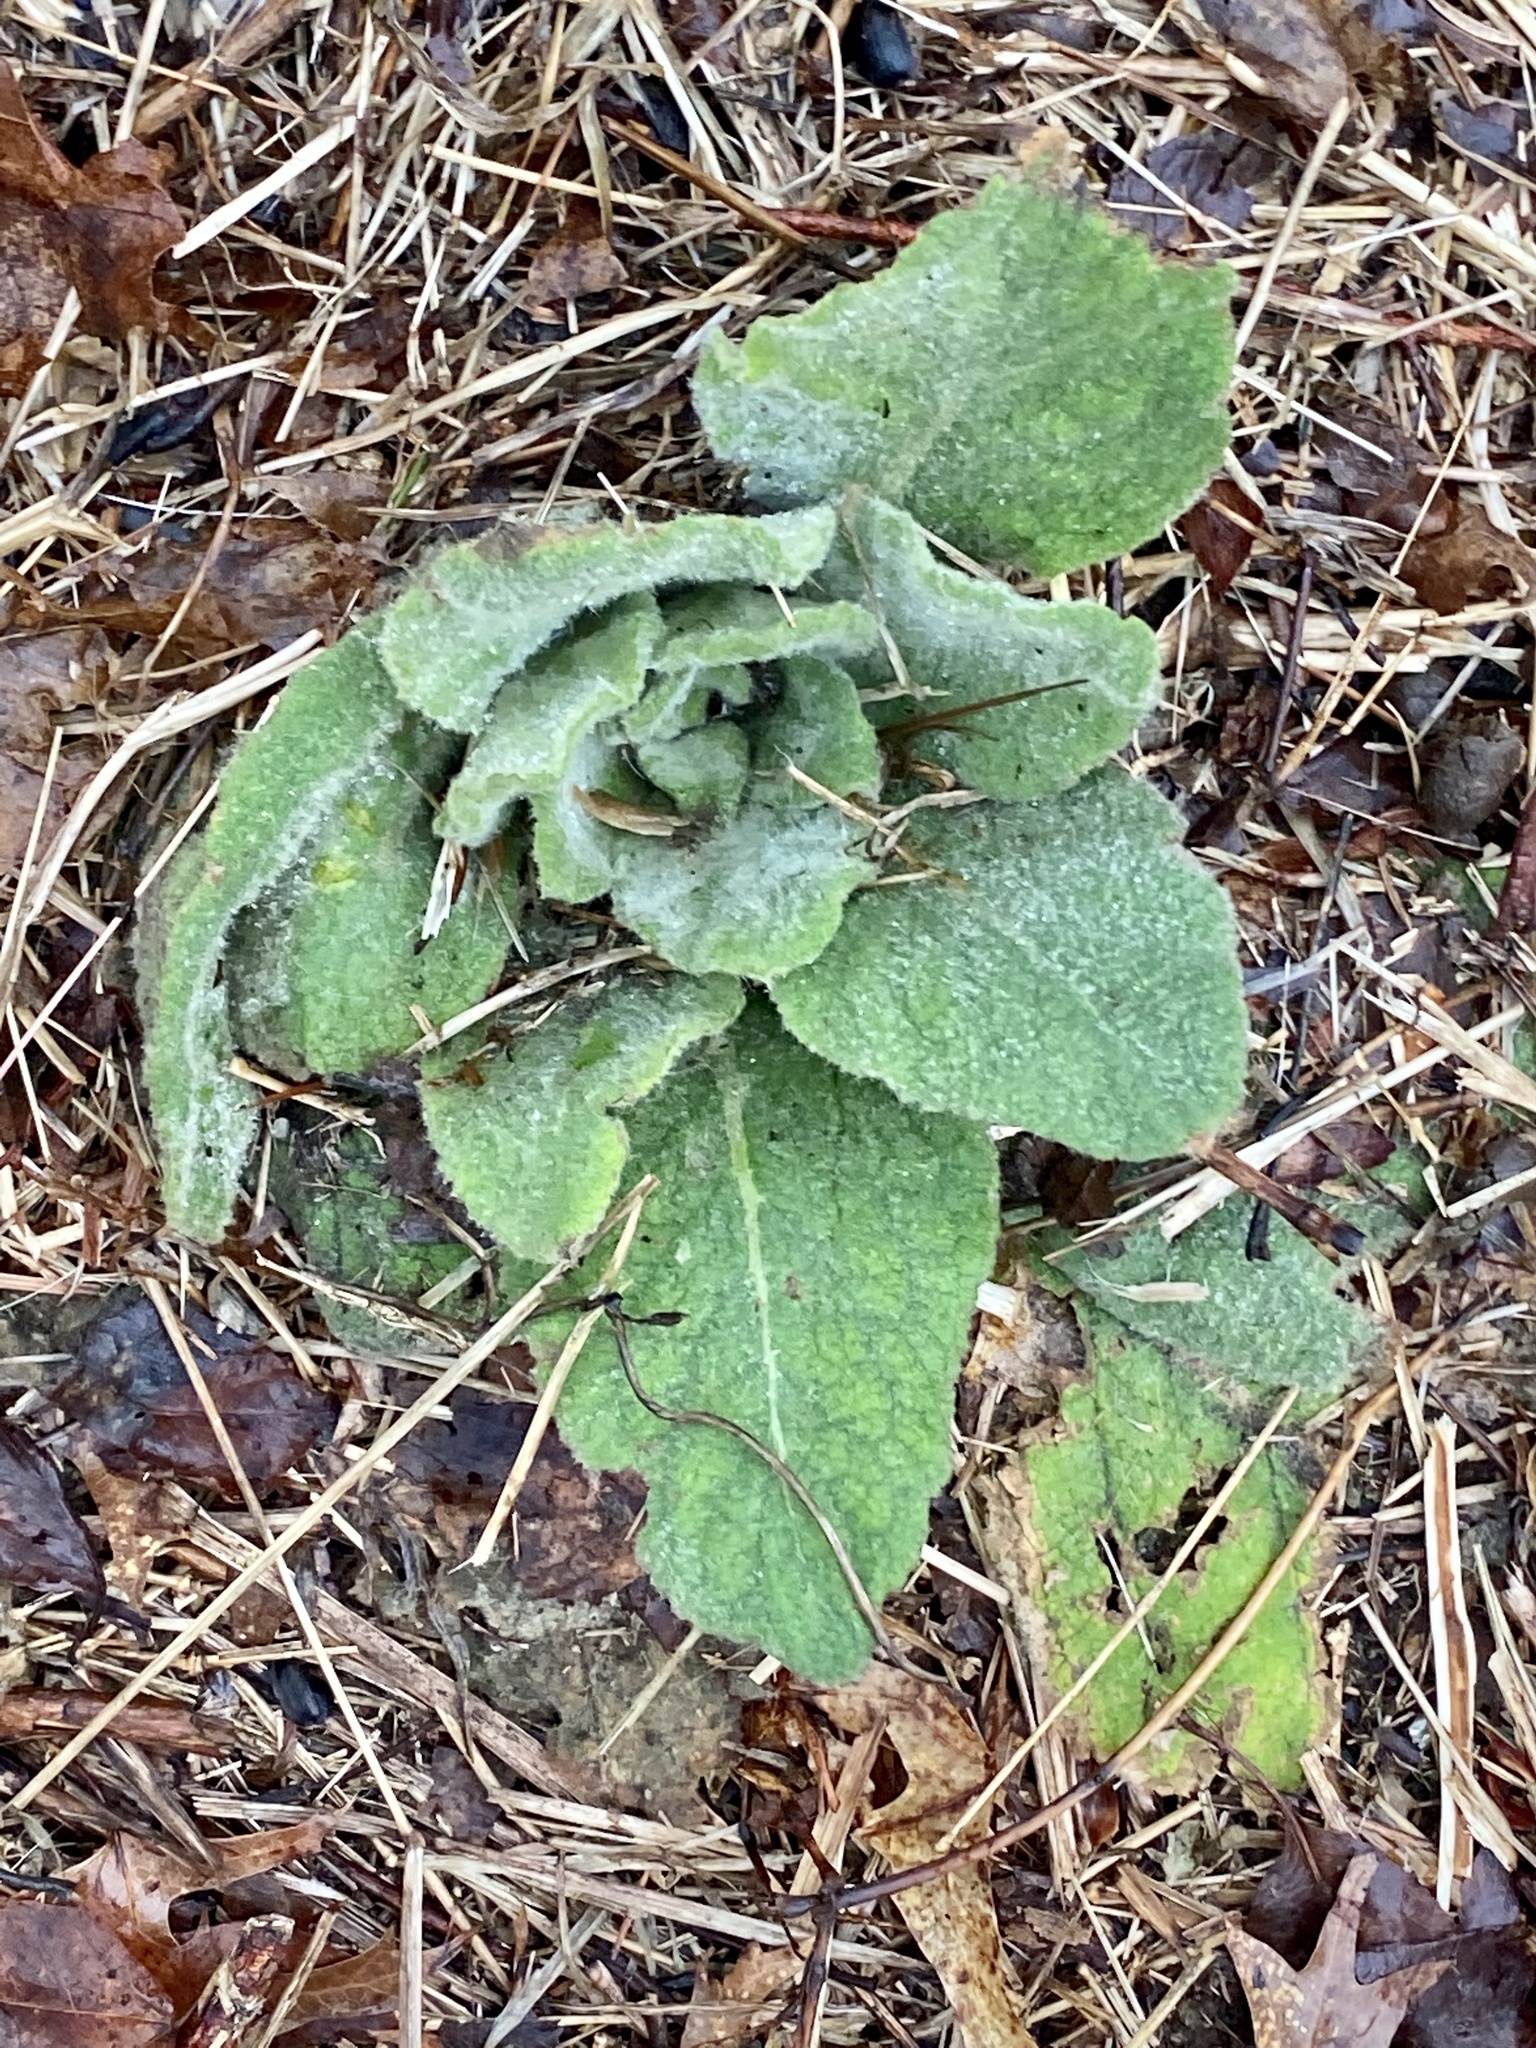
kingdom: Plantae
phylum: Tracheophyta
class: Magnoliopsida
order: Lamiales
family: Scrophulariaceae
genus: Verbascum
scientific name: Verbascum thapsus
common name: Common mullein
